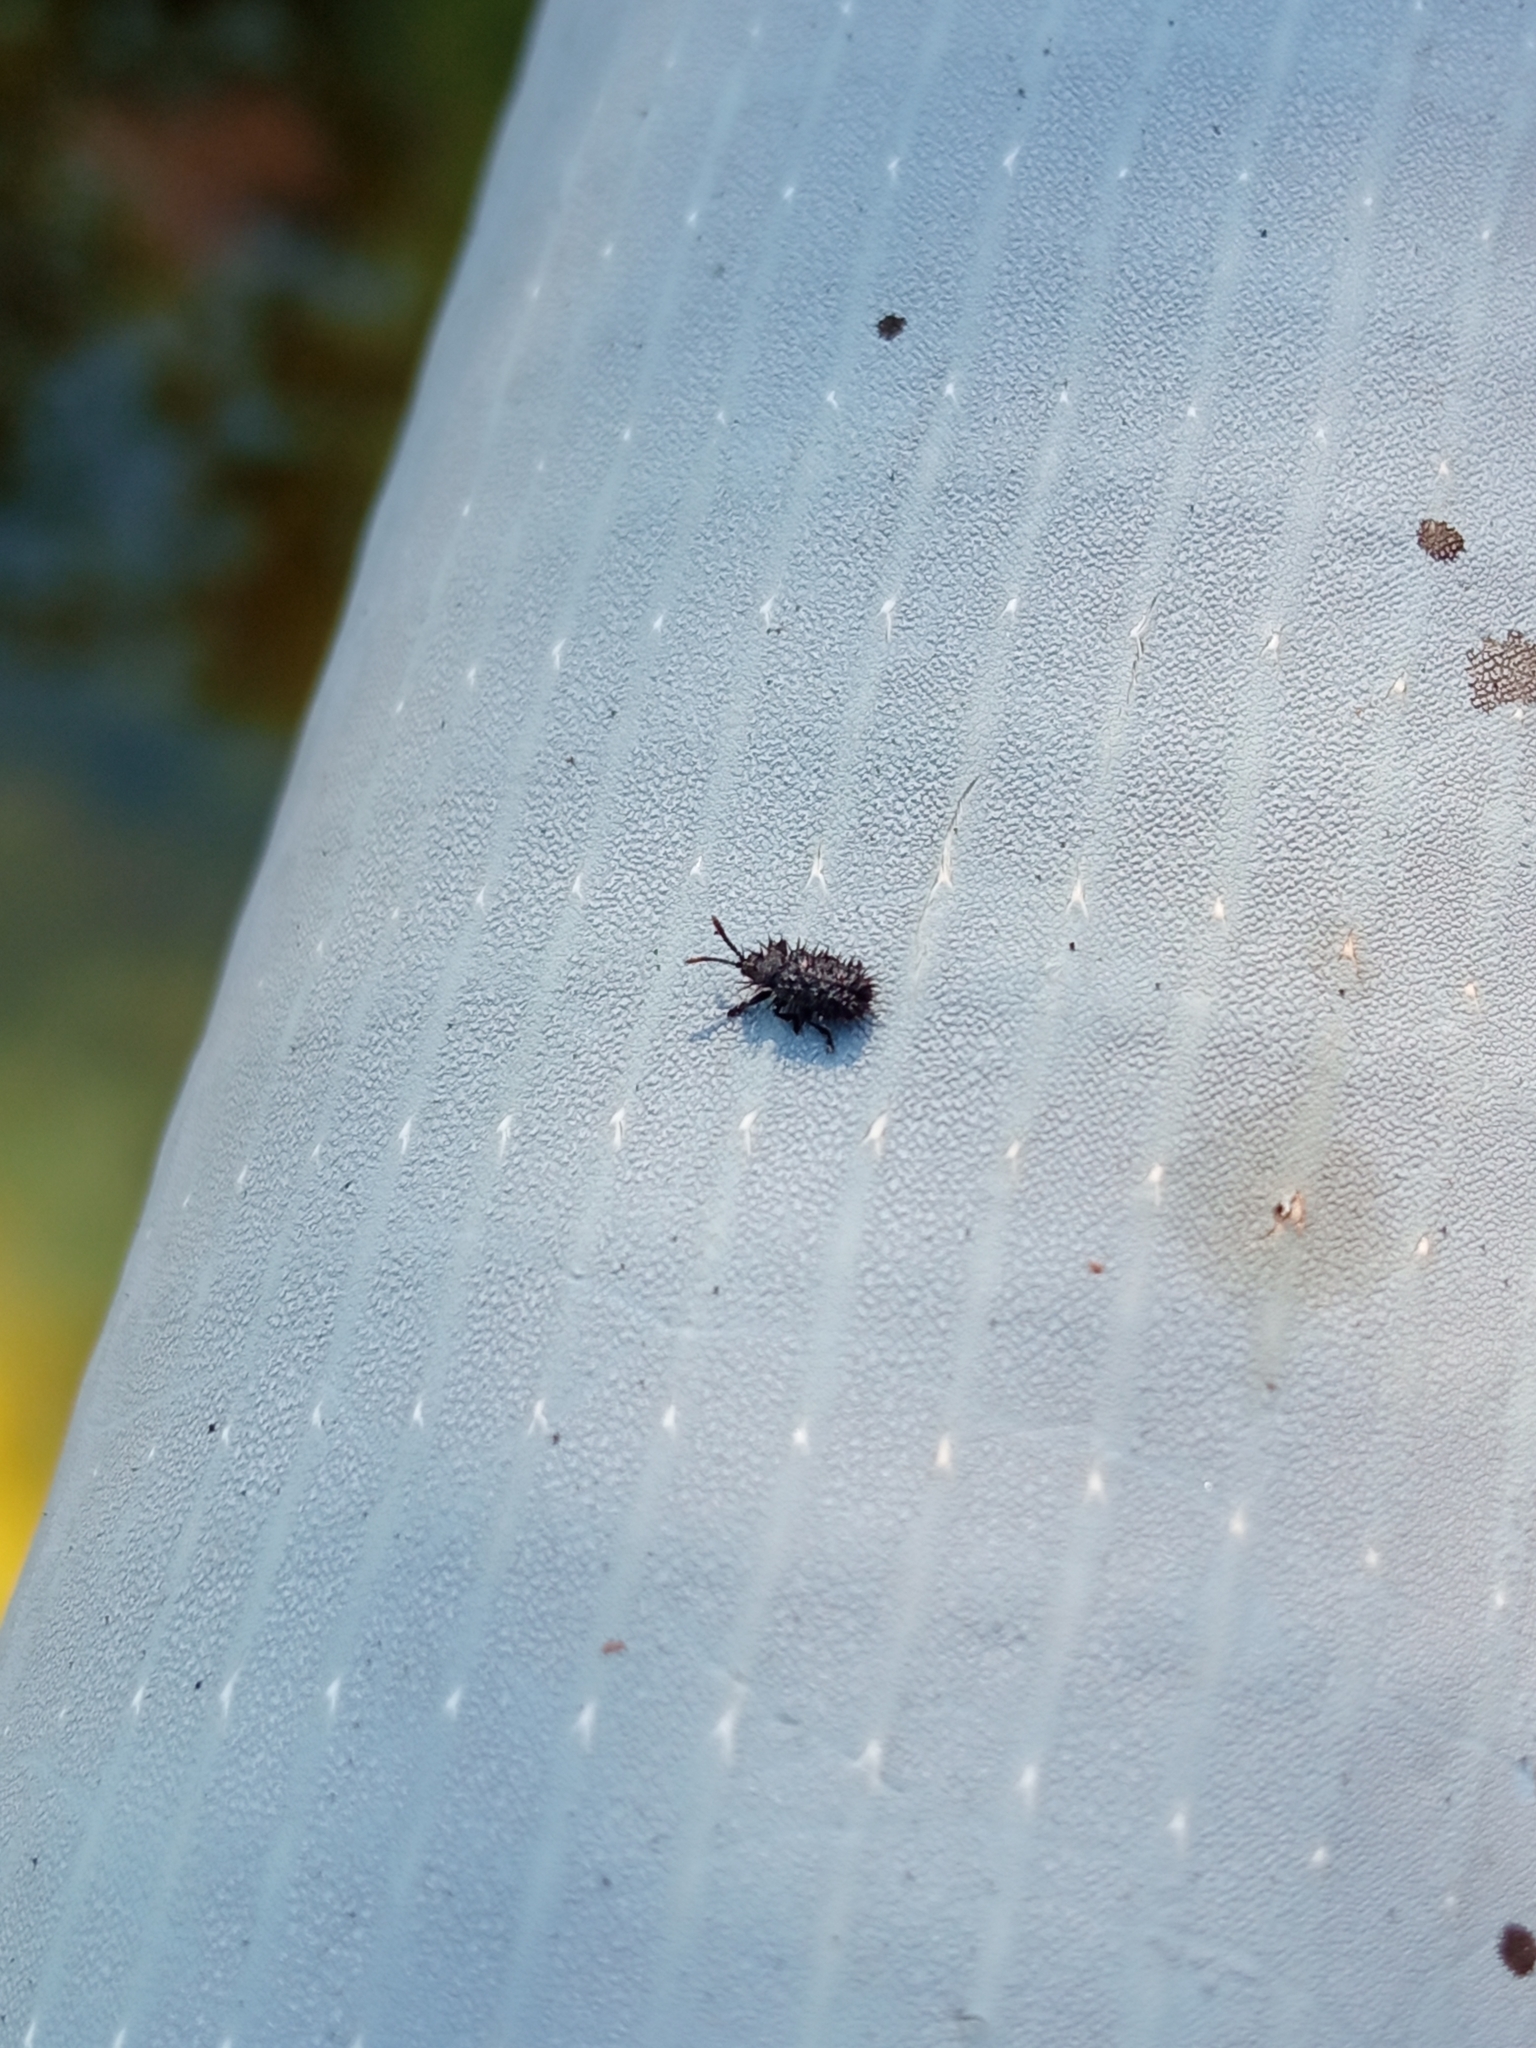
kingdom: Animalia
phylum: Arthropoda
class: Insecta
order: Coleoptera
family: Chrysomelidae
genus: Hispa
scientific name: Hispa atra
